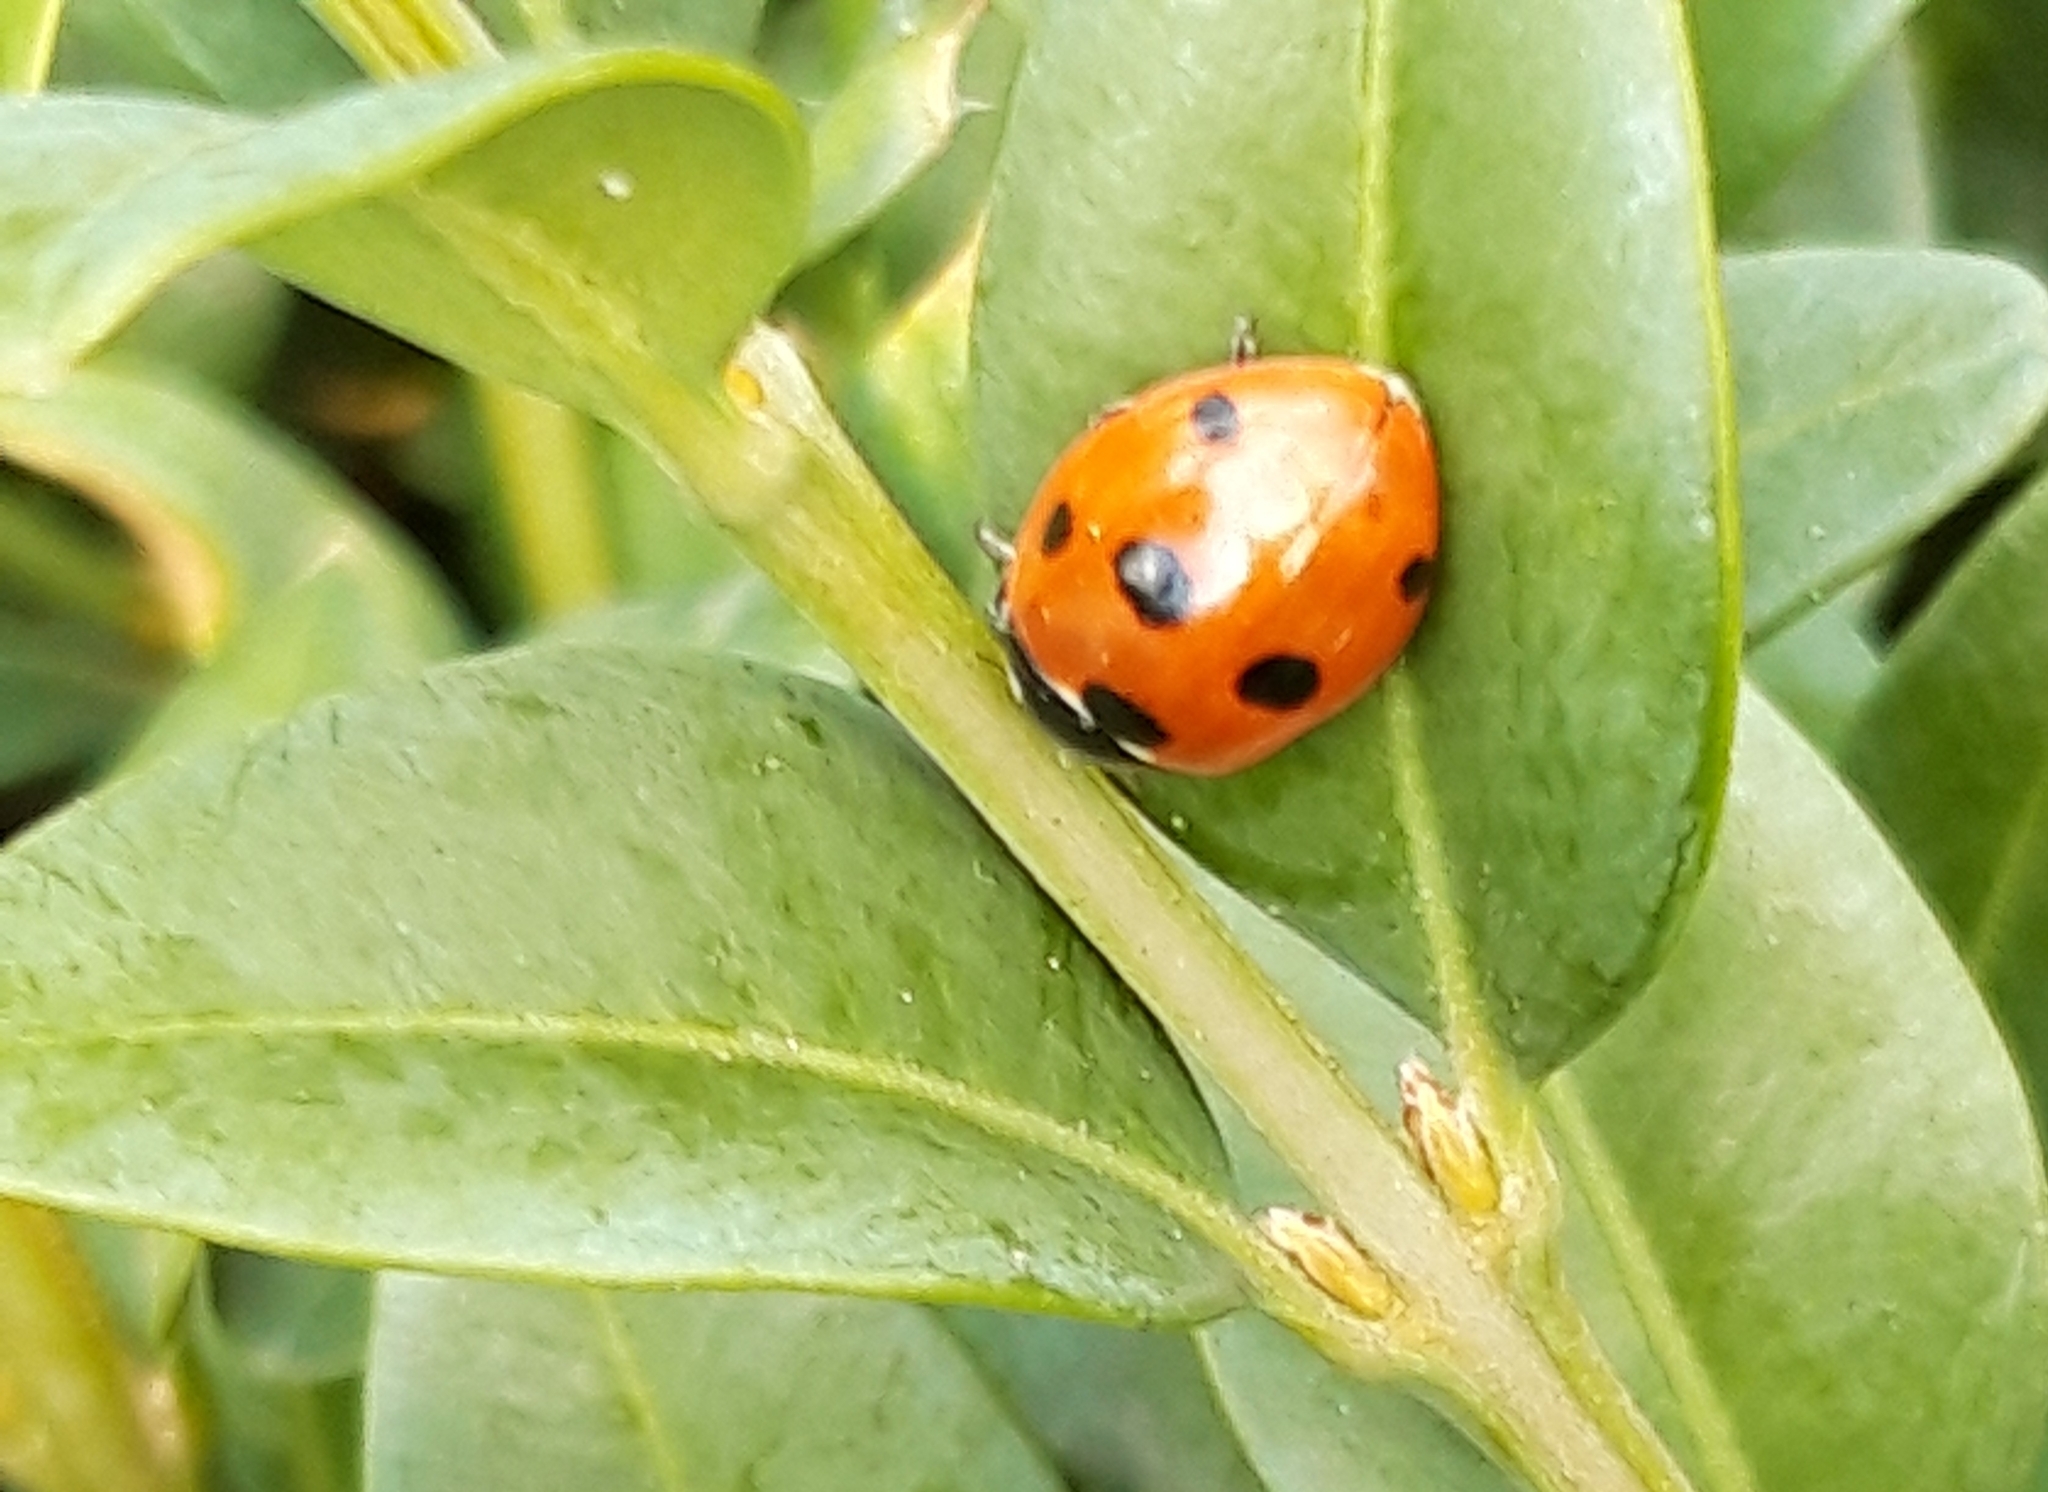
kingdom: Animalia
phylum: Arthropoda
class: Insecta
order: Coleoptera
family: Coccinellidae
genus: Coccinella
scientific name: Coccinella septempunctata
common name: Sevenspotted lady beetle
